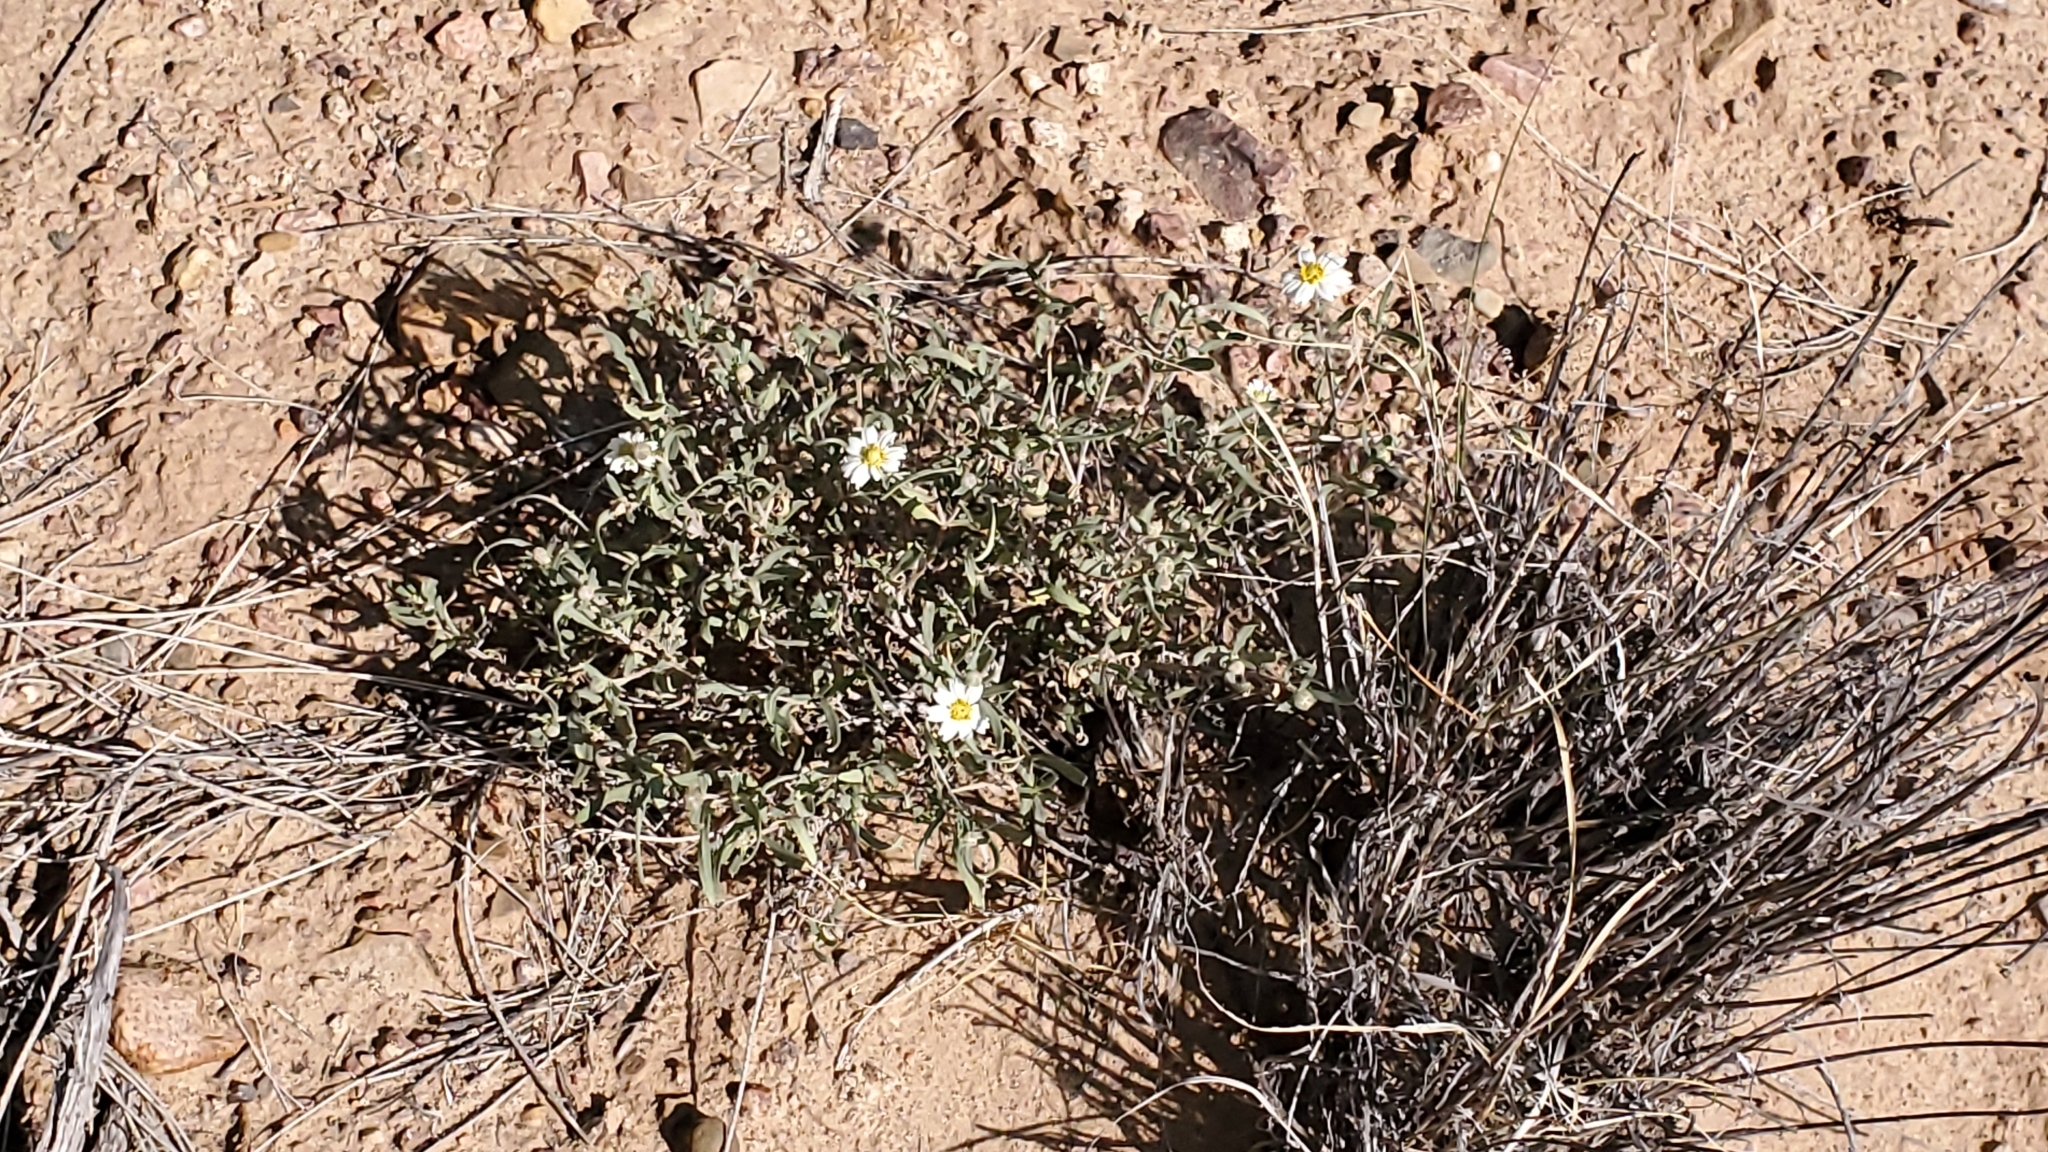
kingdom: Plantae
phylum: Tracheophyta
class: Magnoliopsida
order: Asterales
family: Asteraceae
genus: Melampodium
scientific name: Melampodium leucanthum
